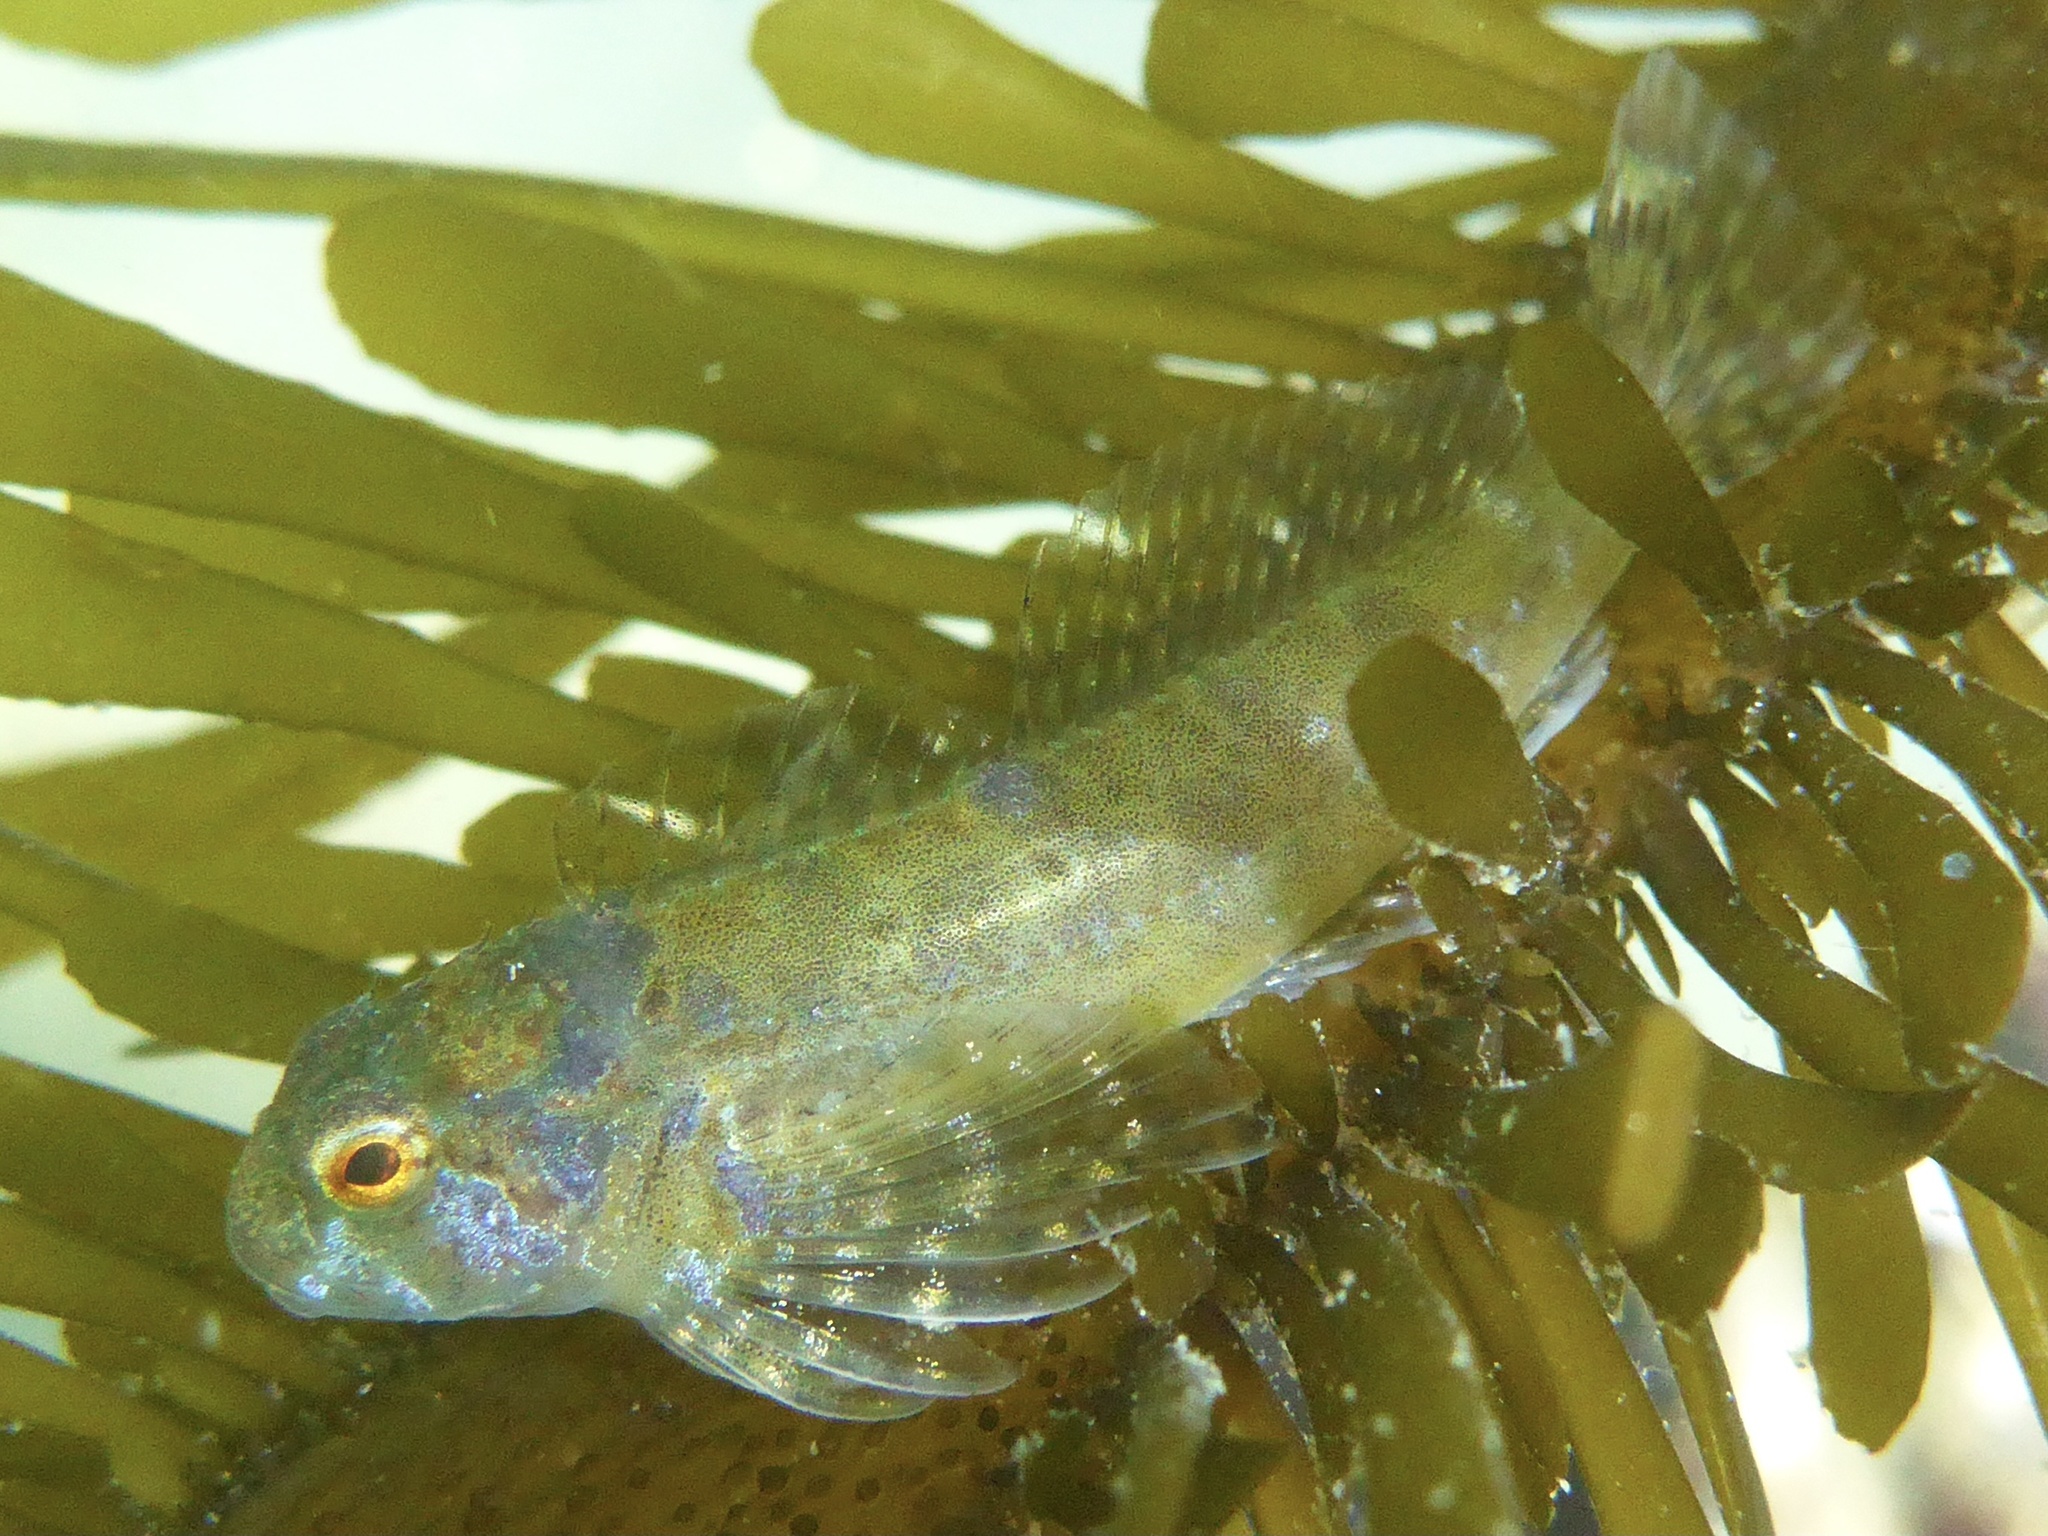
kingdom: Animalia
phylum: Chordata
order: Scorpaeniformes
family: Cottidae
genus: Clinocottus
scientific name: Clinocottus recalvus
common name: Bald sculpin
